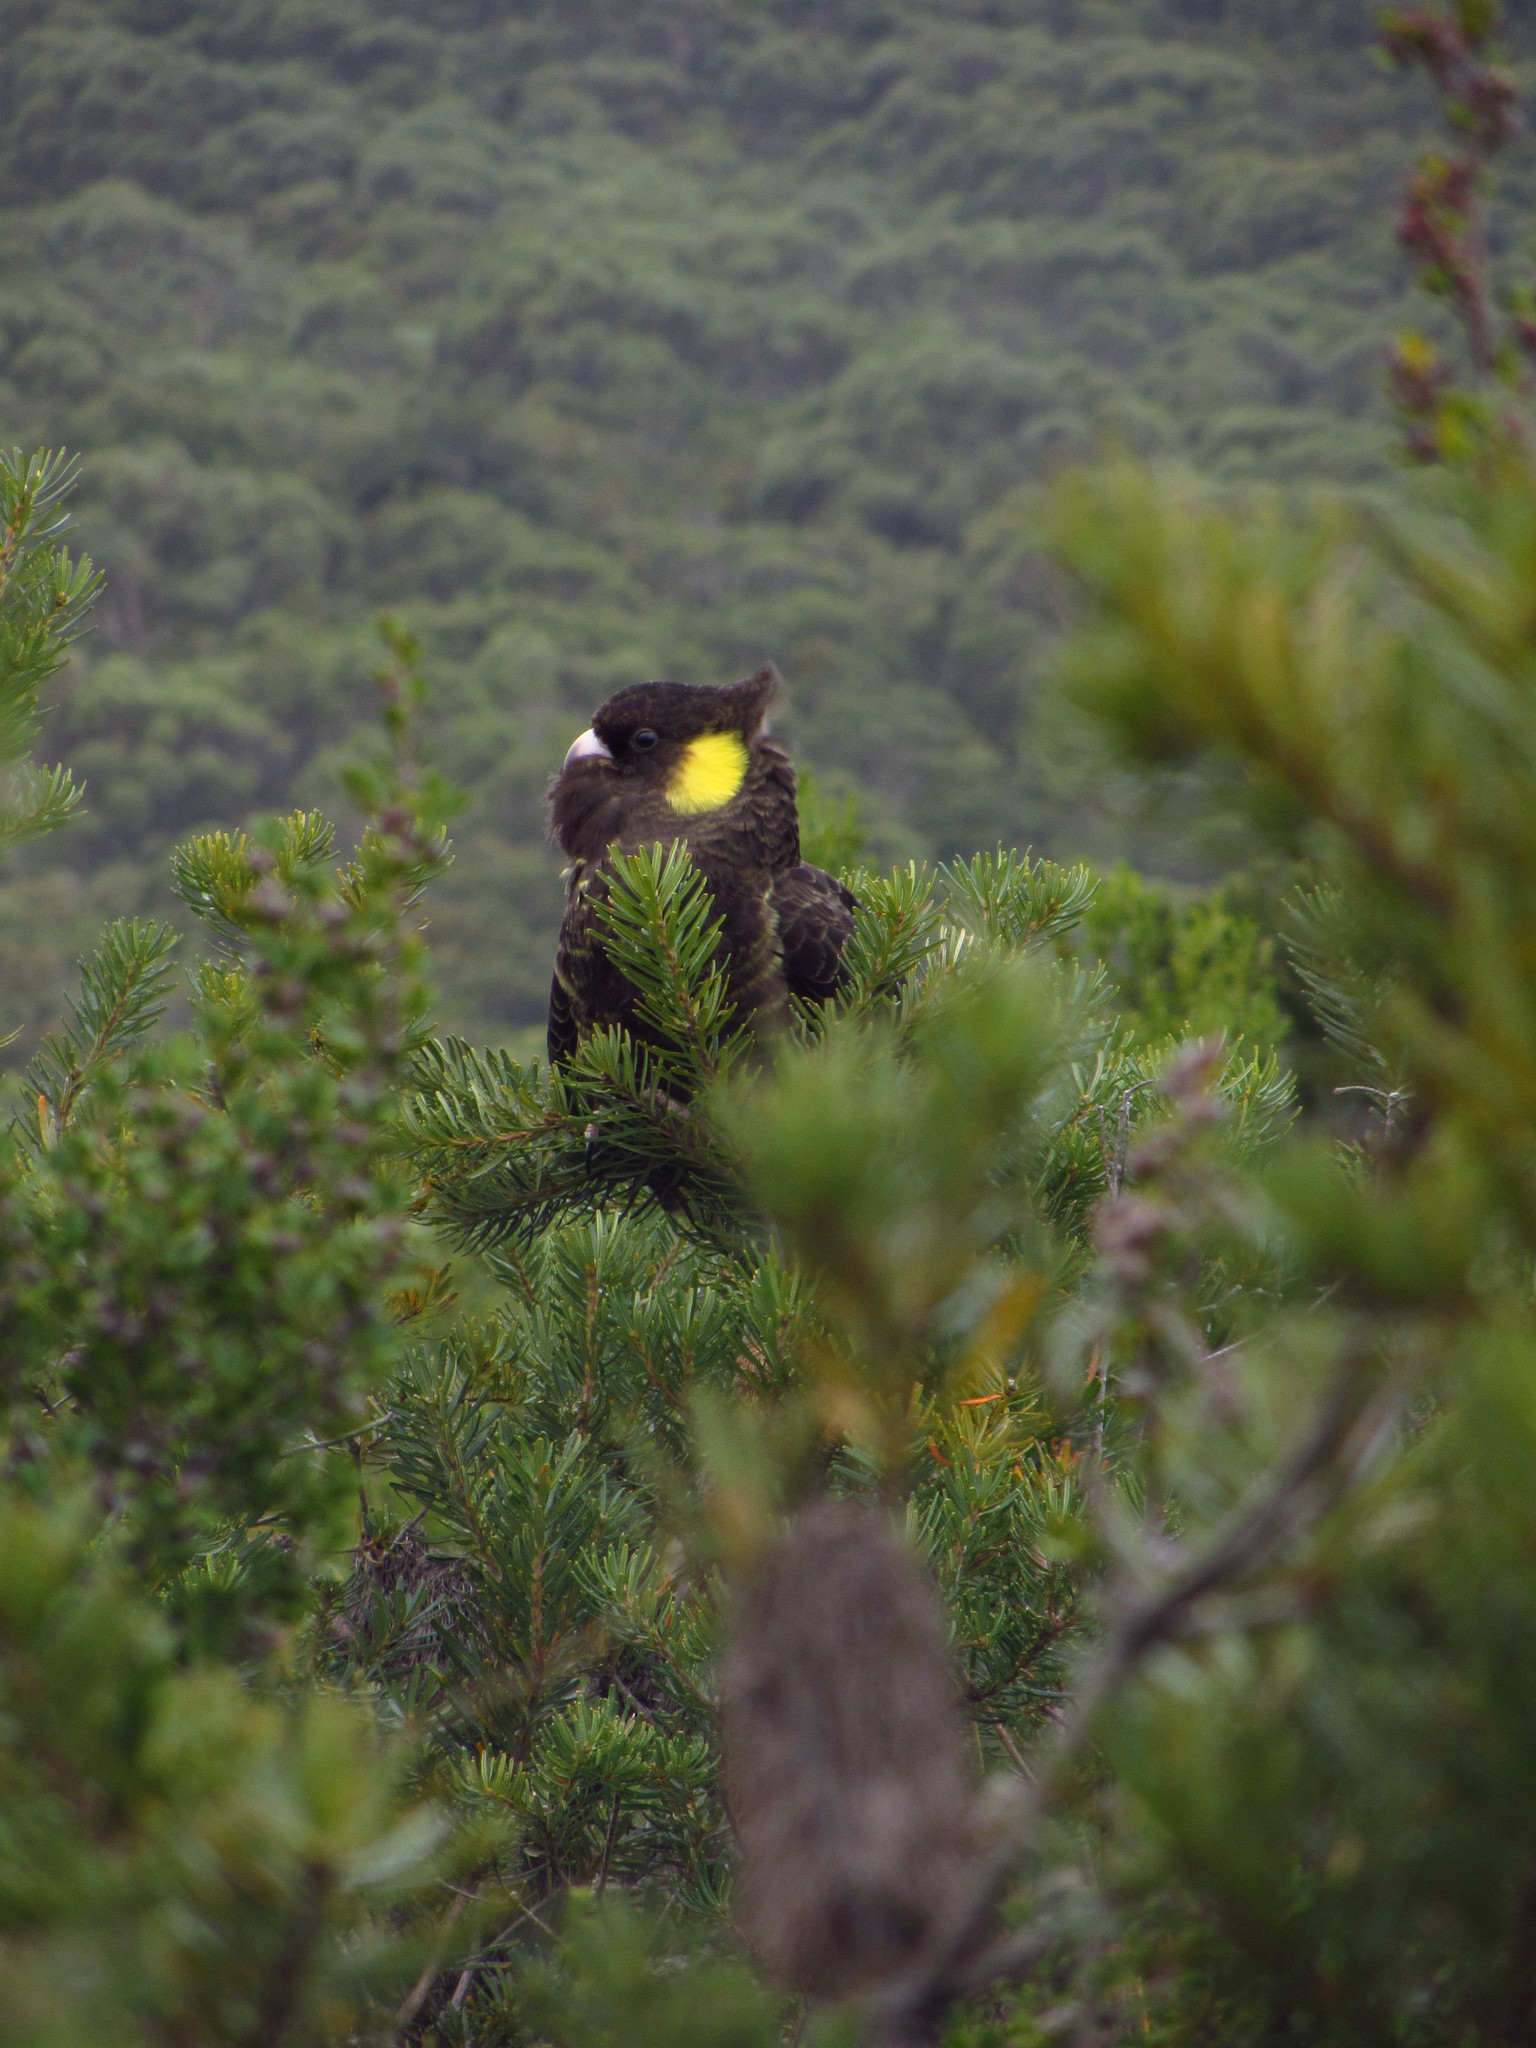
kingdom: Animalia
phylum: Chordata
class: Aves
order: Psittaciformes
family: Cacatuidae
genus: Zanda
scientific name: Zanda funerea
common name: Yellow-tailed black-cockatoo
